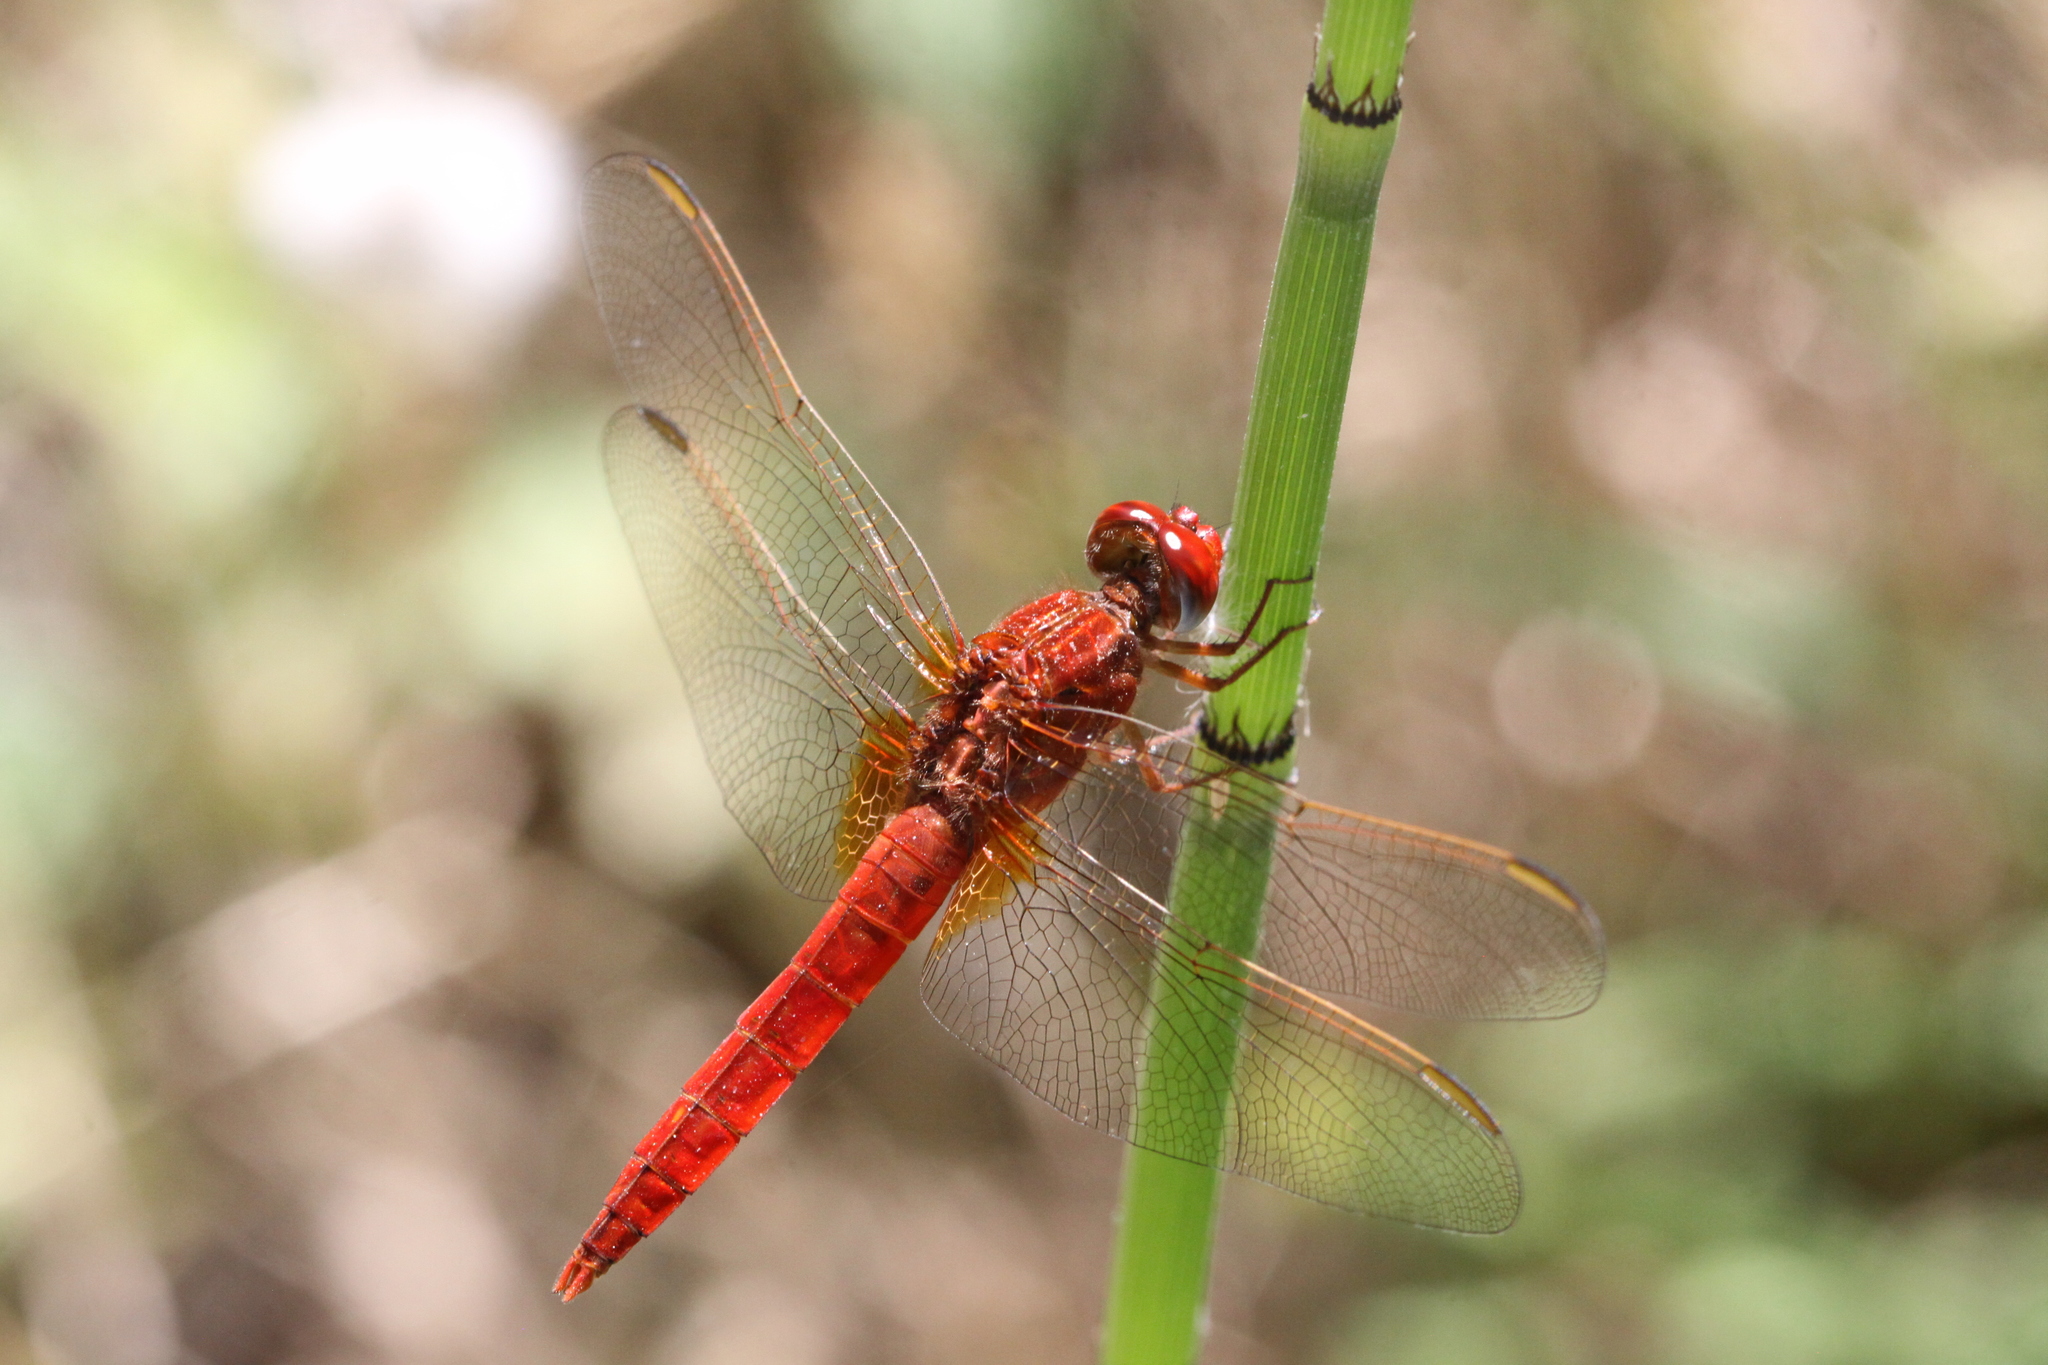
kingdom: Animalia
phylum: Arthropoda
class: Insecta
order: Odonata
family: Libellulidae
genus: Crocothemis
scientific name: Crocothemis erythraea
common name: Scarlet dragonfly
